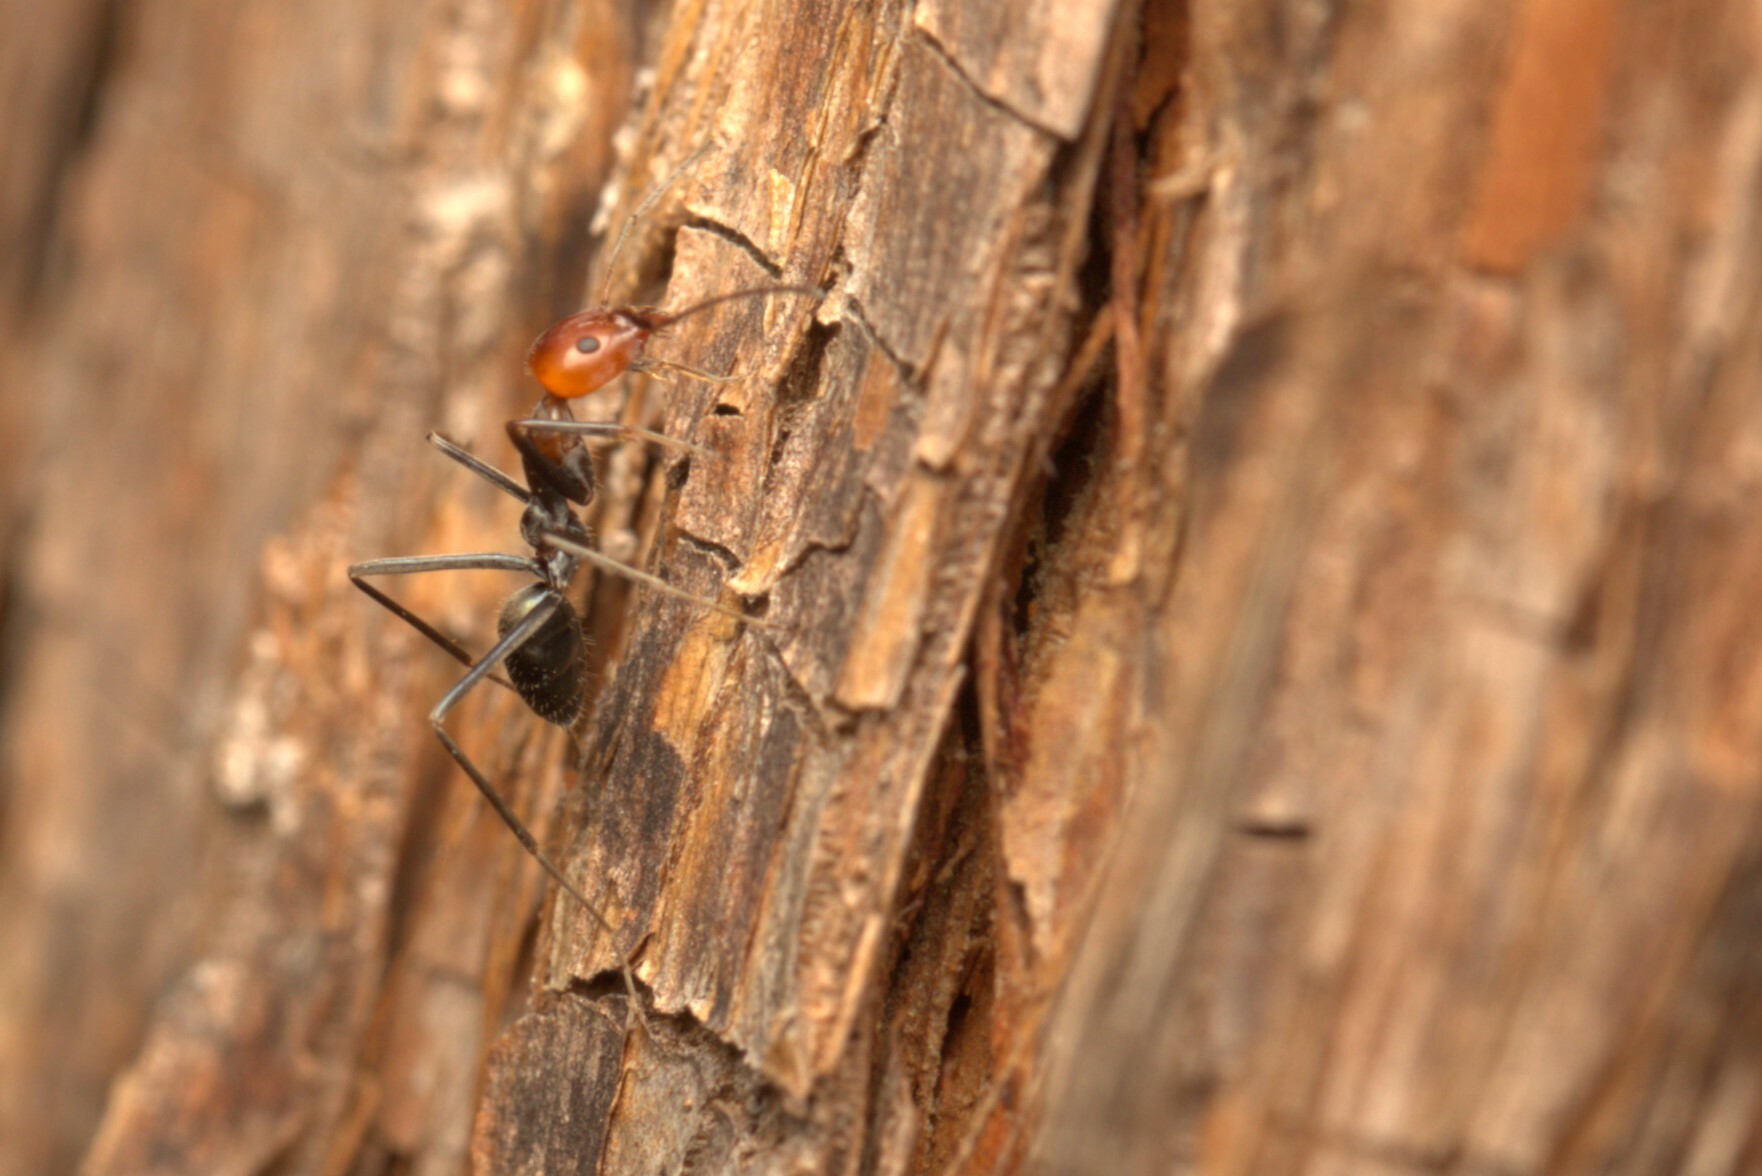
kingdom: Animalia
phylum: Arthropoda
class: Insecta
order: Hymenoptera
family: Formicidae
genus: Iridomyrmex
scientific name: Iridomyrmex
